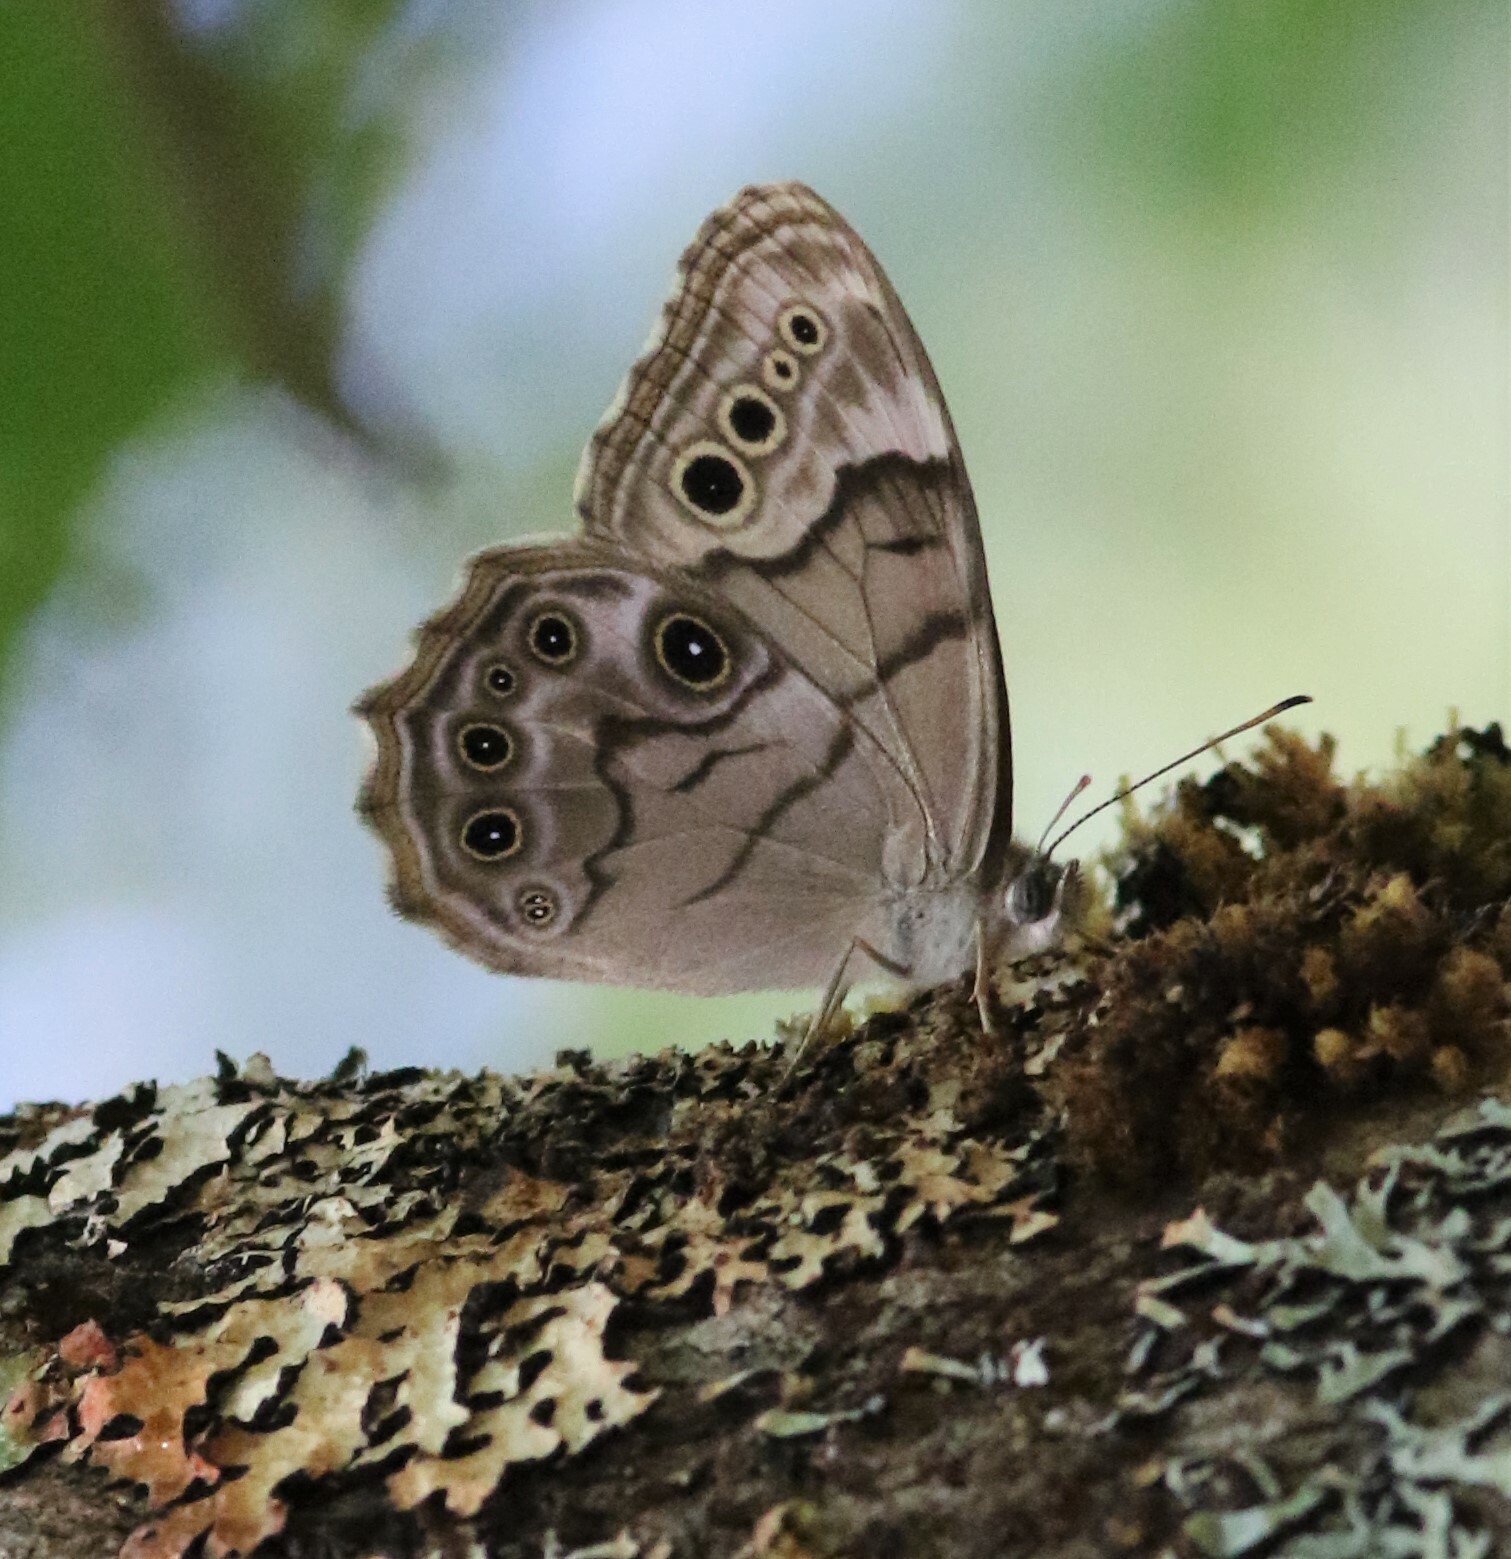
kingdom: Animalia
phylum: Arthropoda
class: Insecta
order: Lepidoptera
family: Nymphalidae
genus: Lethe
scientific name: Lethe anthedon
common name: Northern pearly-eye
